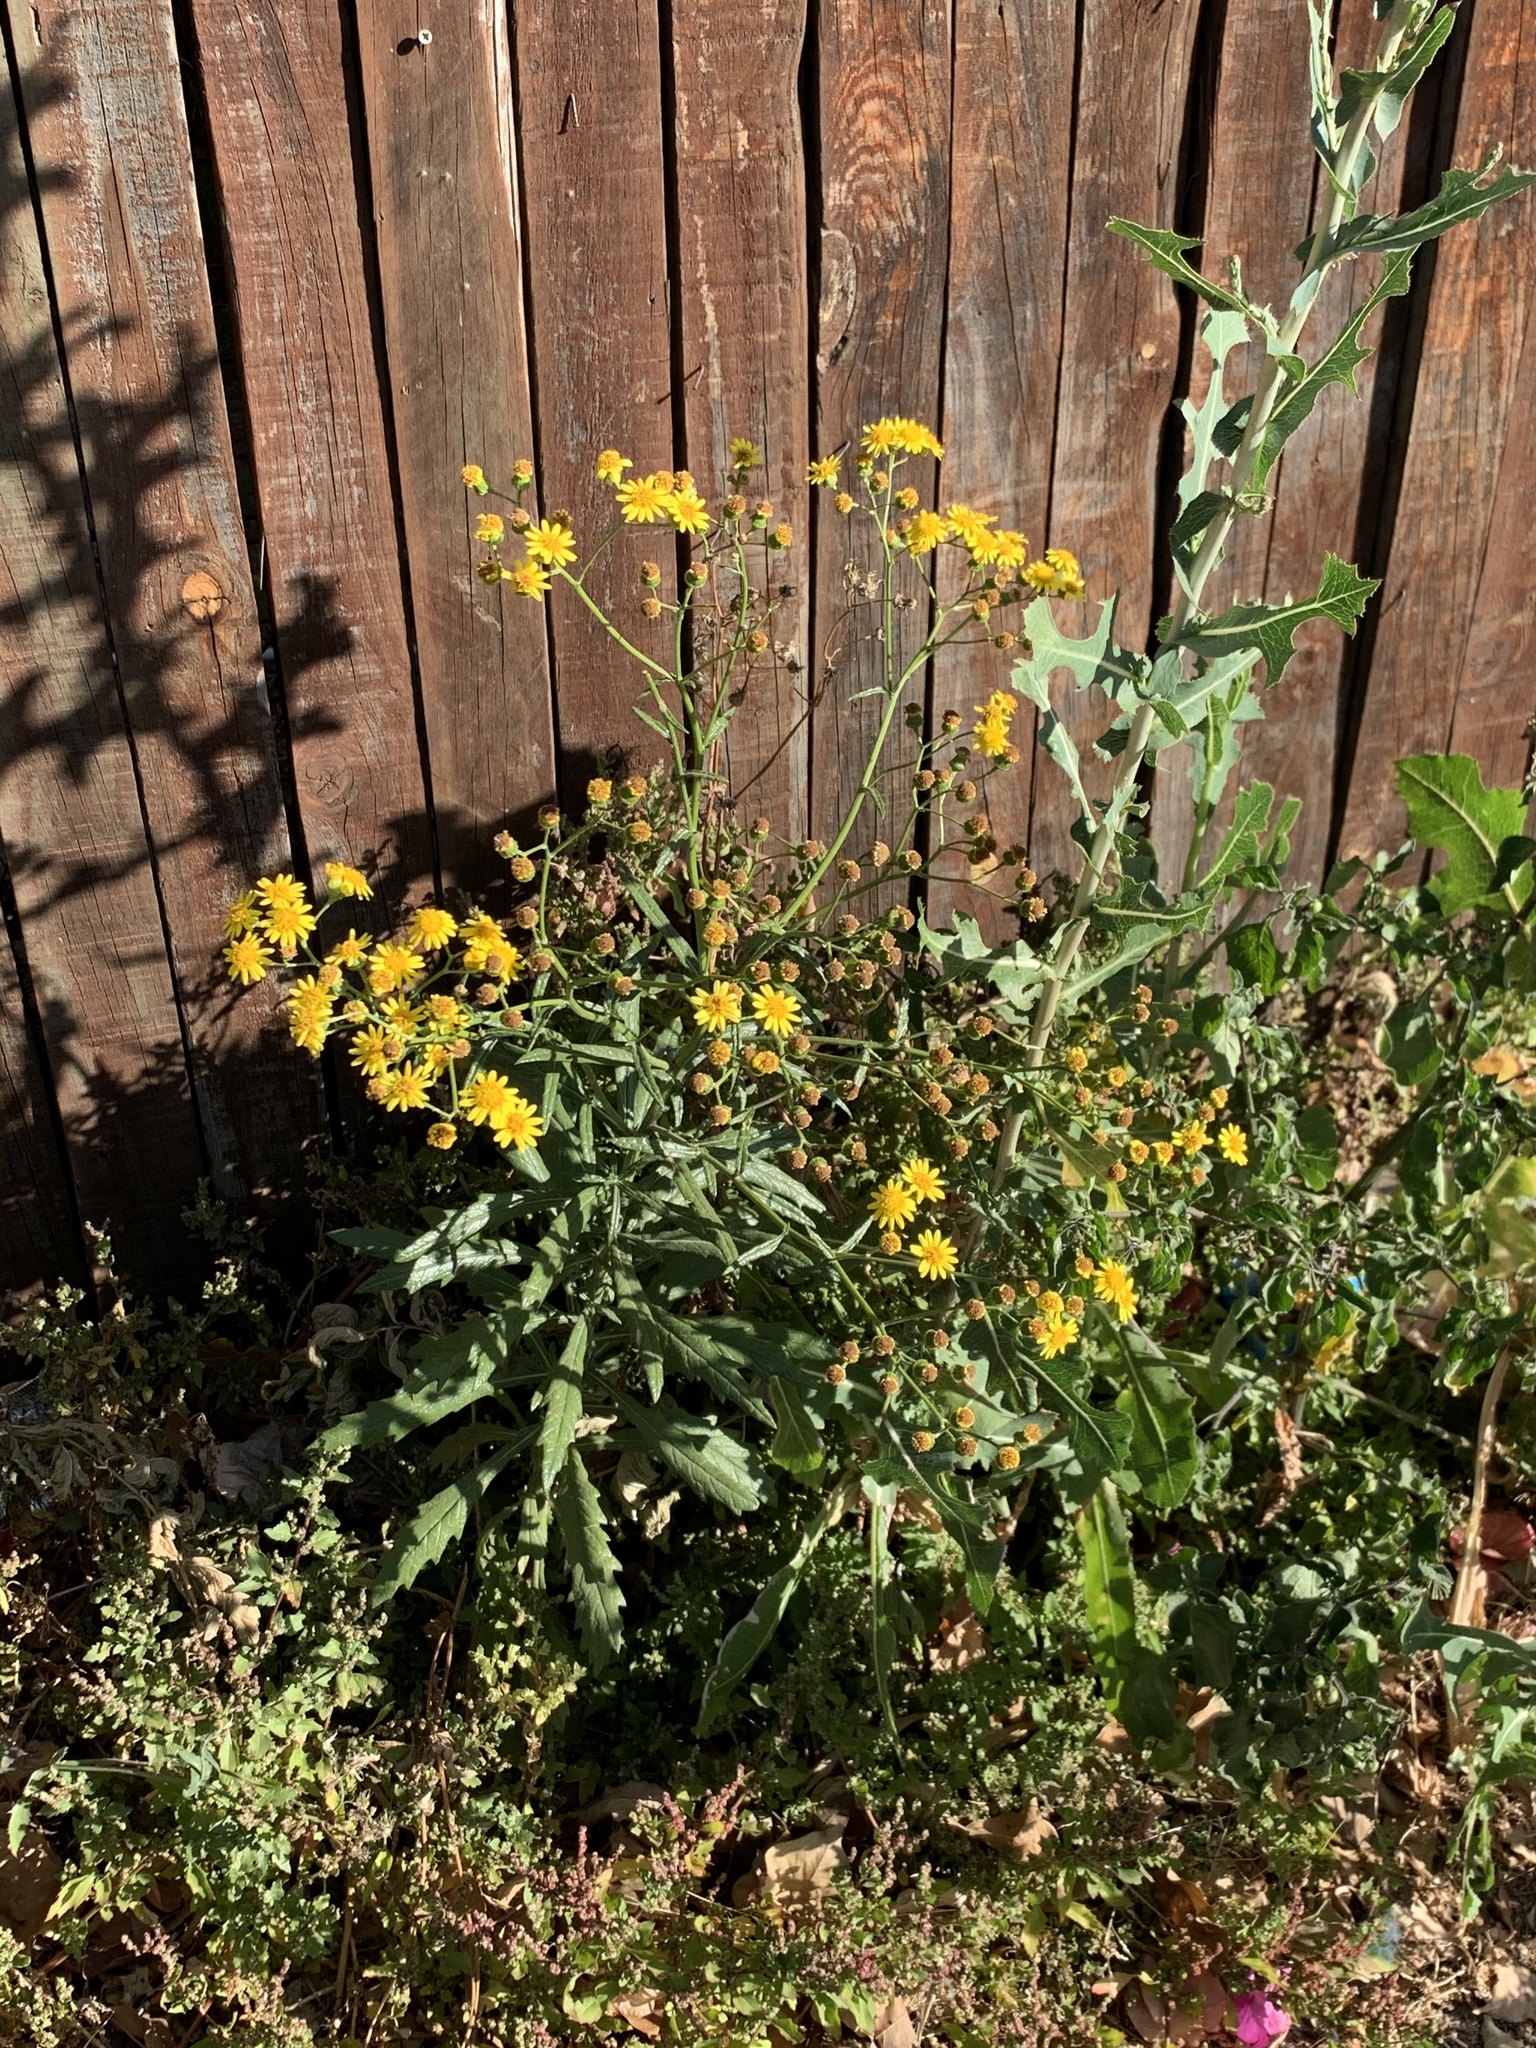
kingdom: Plantae
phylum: Tracheophyta
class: Magnoliopsida
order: Asterales
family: Asteraceae
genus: Senecio
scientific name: Senecio pterophorus
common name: Shoddy ragwort
